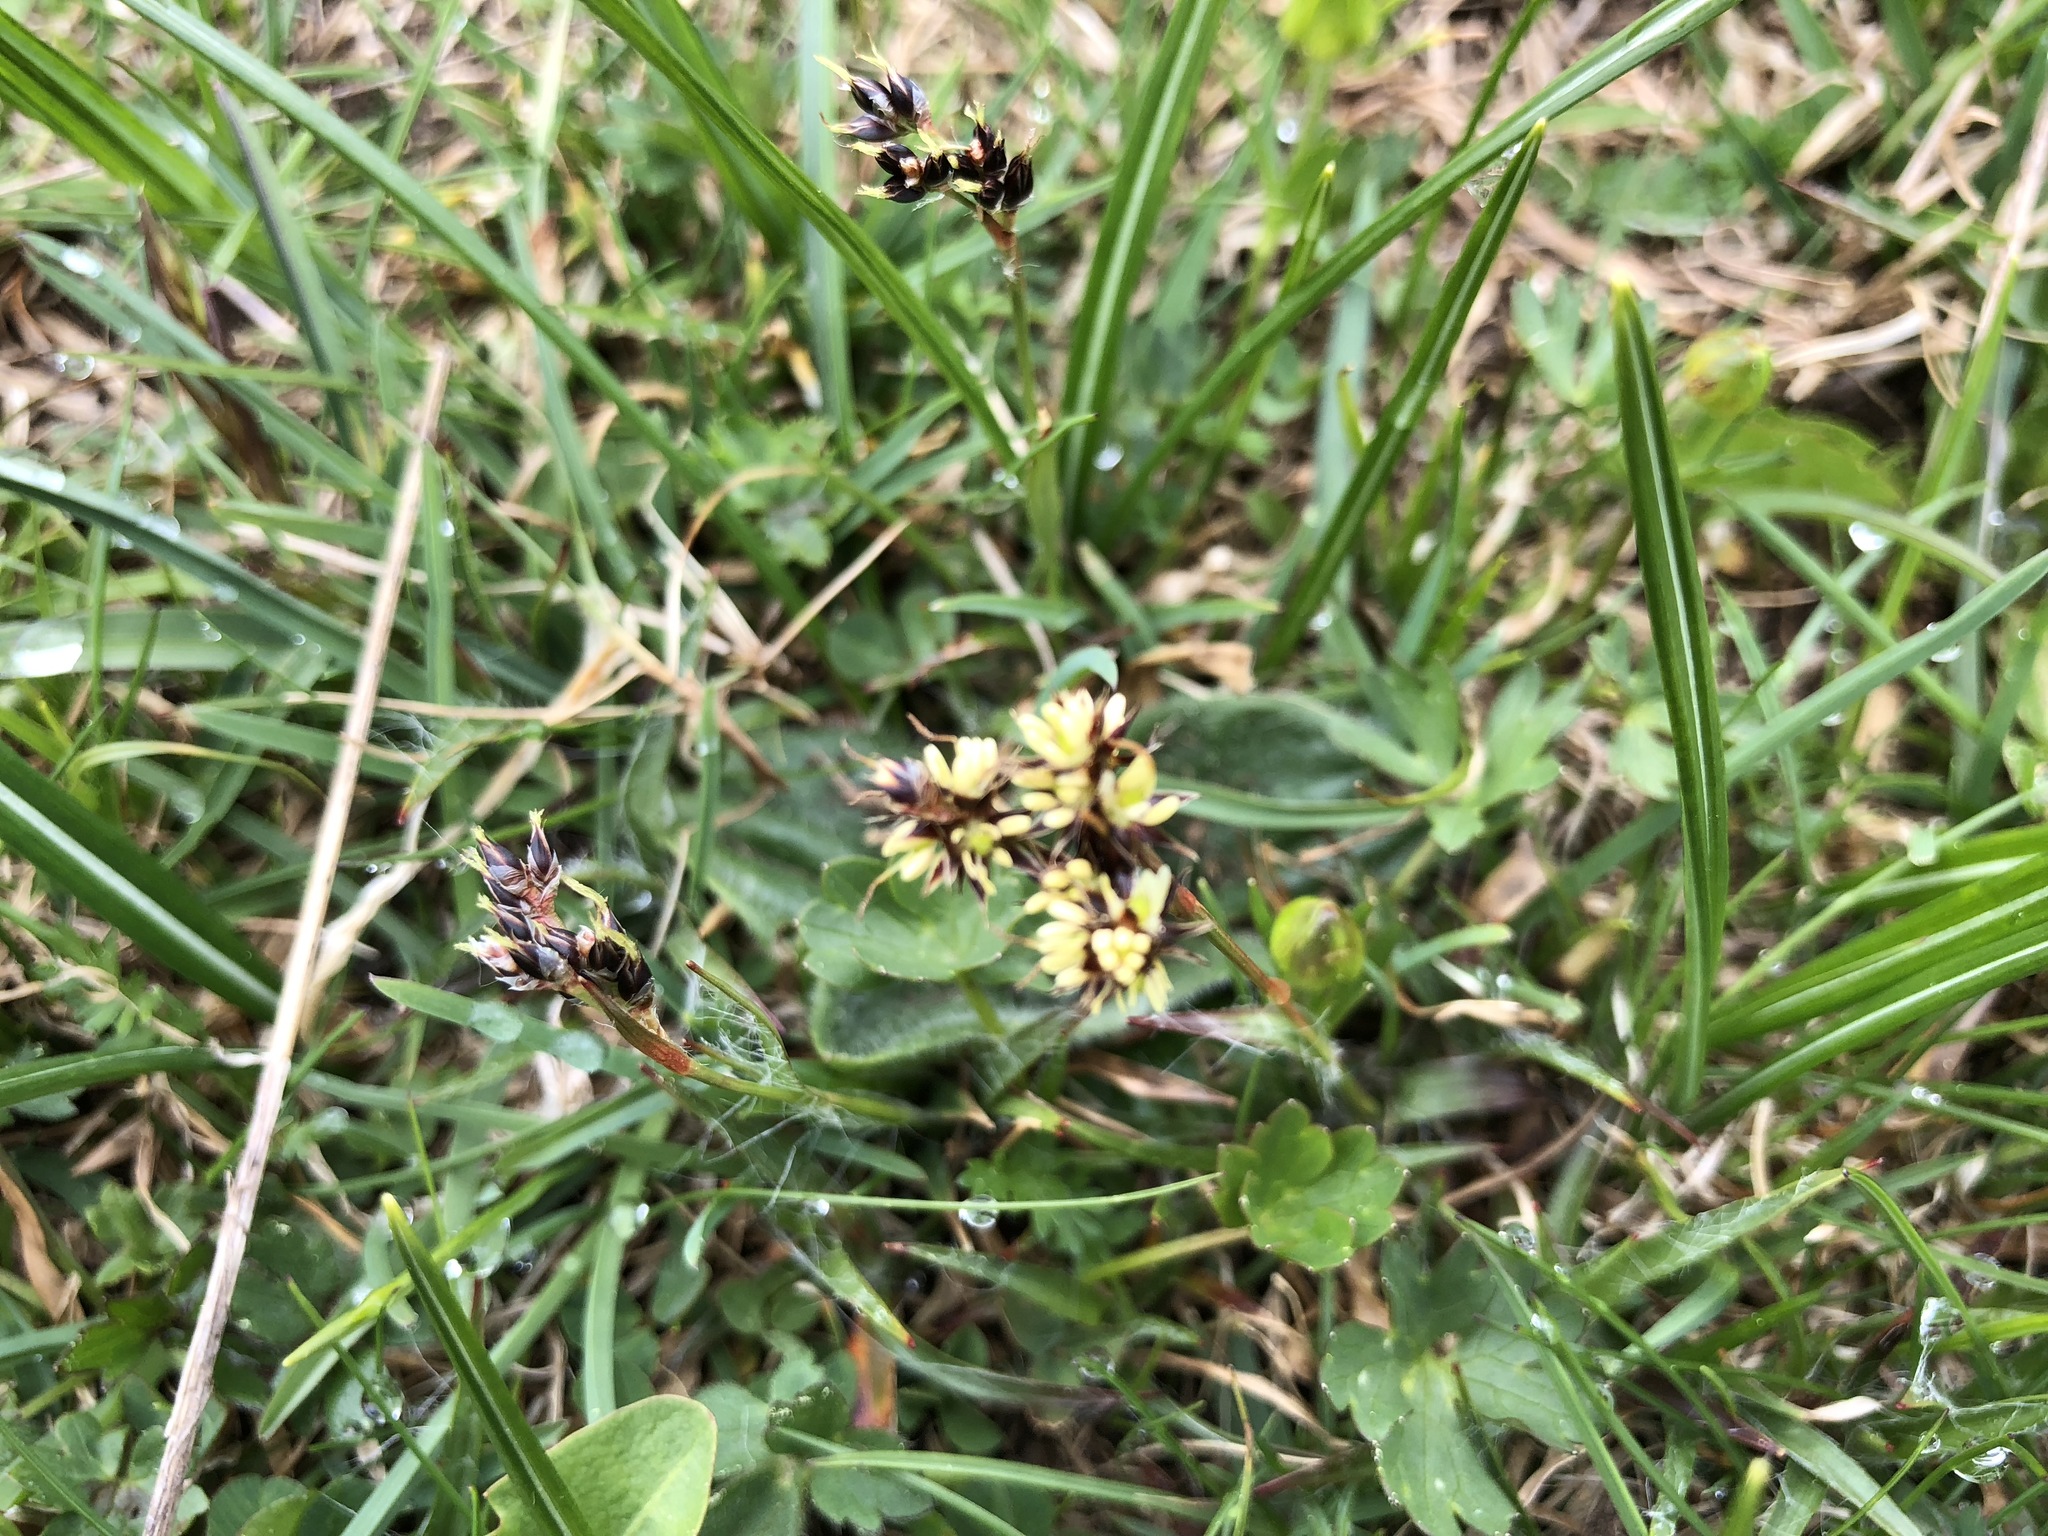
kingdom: Plantae
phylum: Tracheophyta
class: Liliopsida
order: Poales
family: Juncaceae
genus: Luzula
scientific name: Luzula campestris
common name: Field wood-rush
